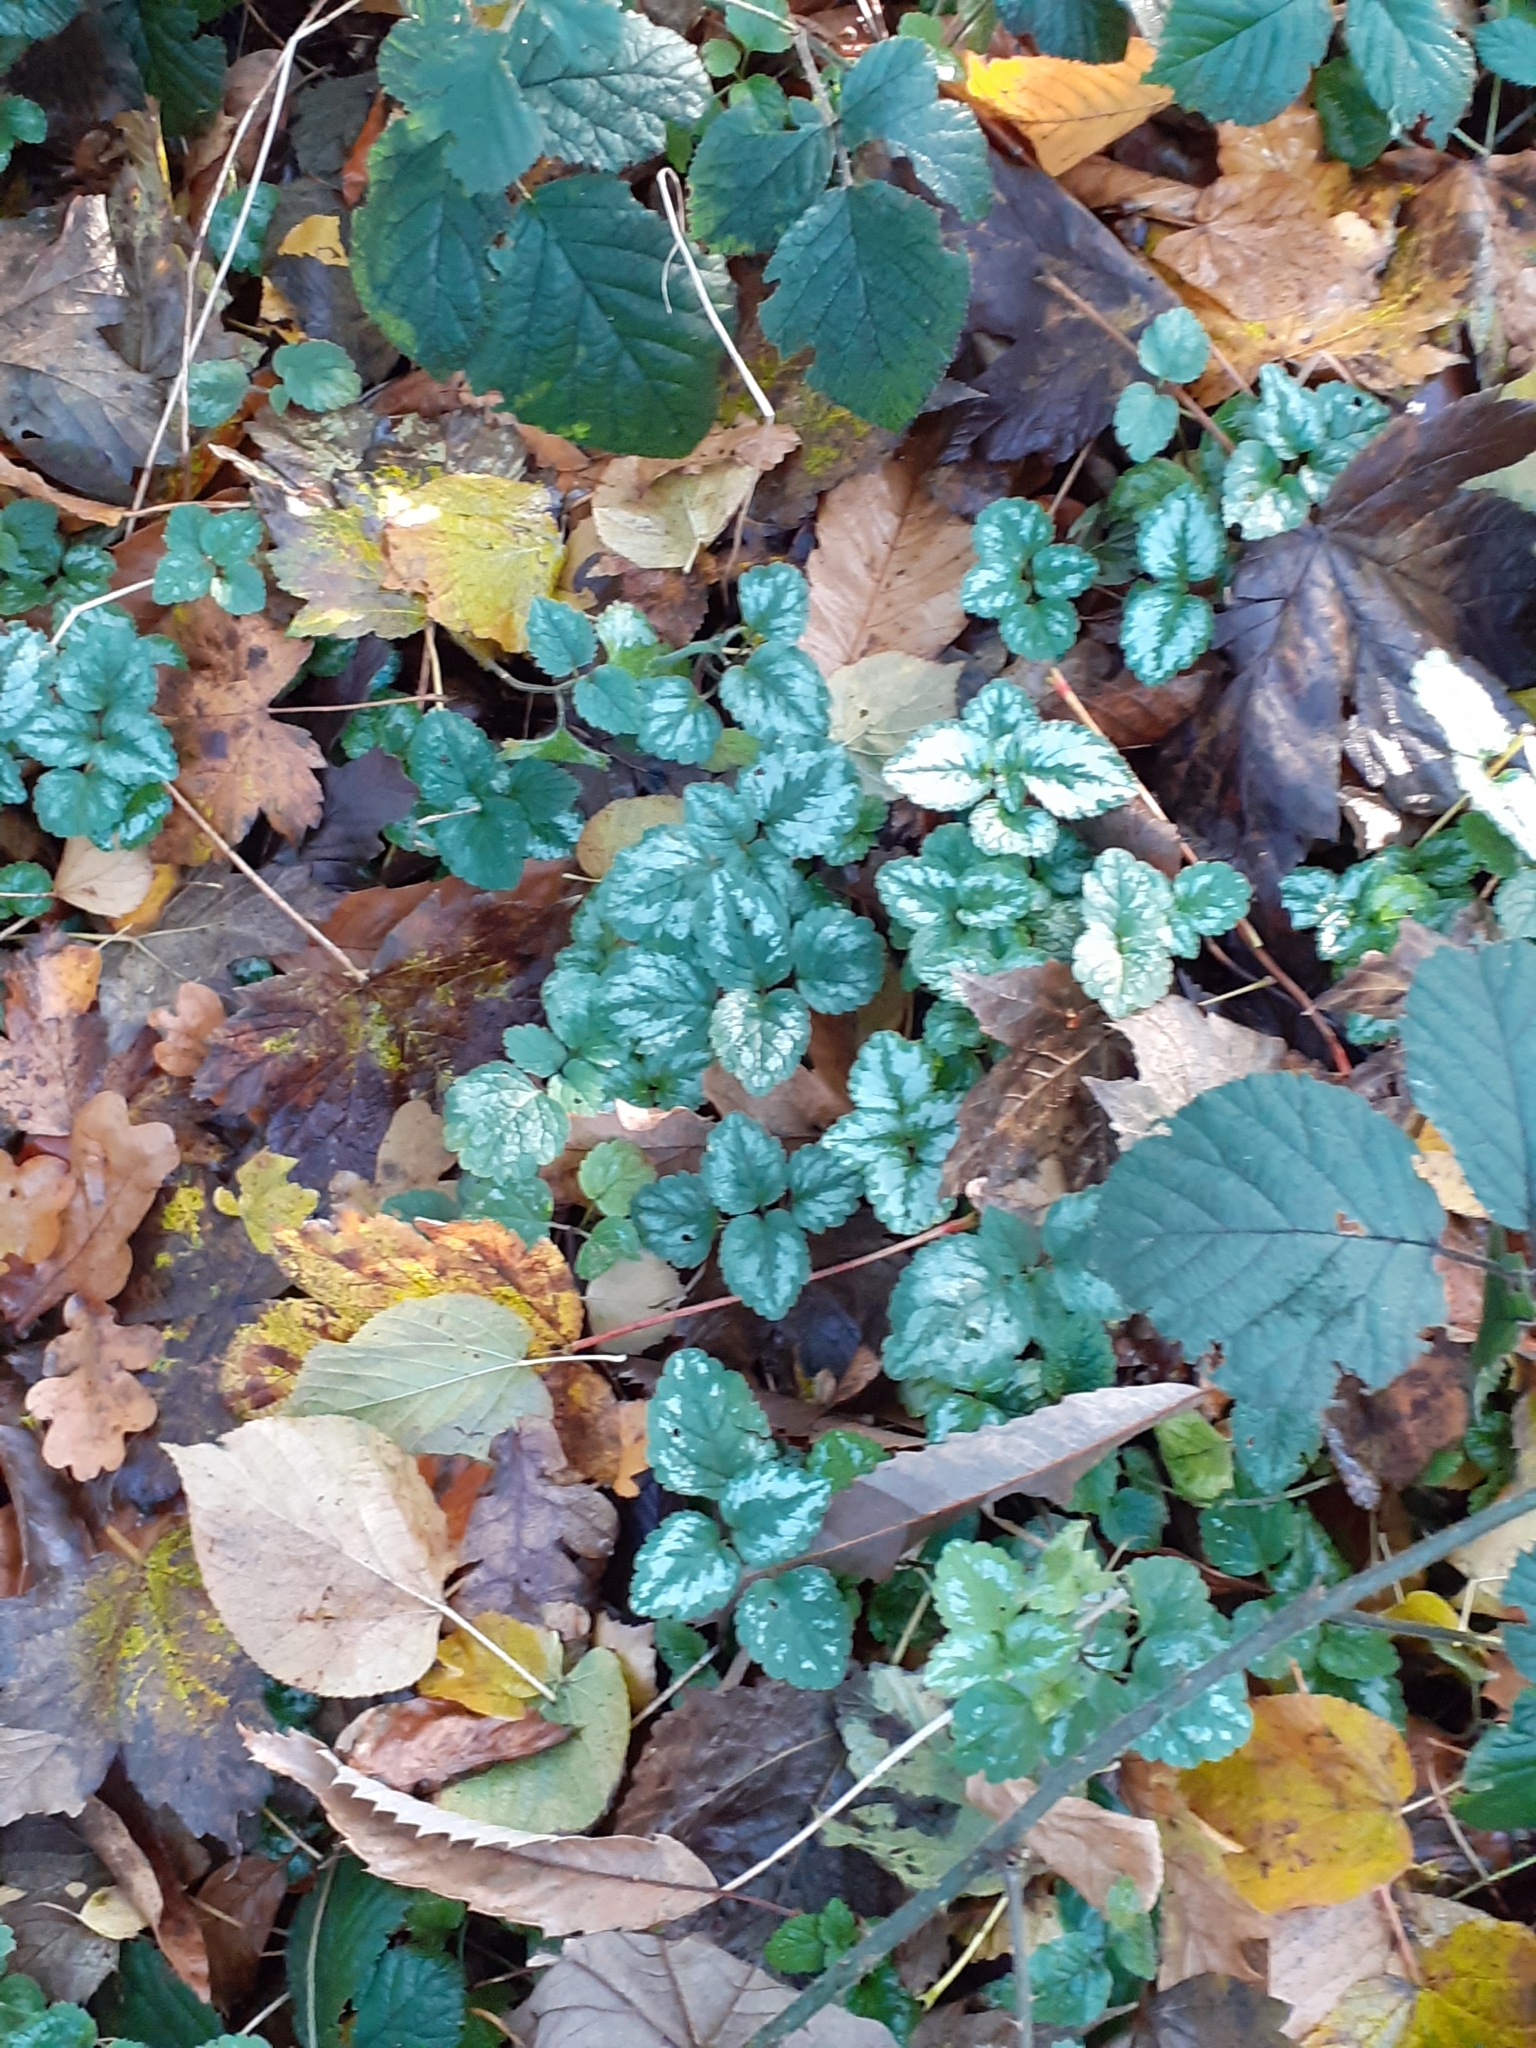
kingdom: Plantae
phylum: Tracheophyta
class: Magnoliopsida
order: Lamiales
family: Lamiaceae
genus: Lamium
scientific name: Lamium galeobdolon
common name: Yellow archangel
